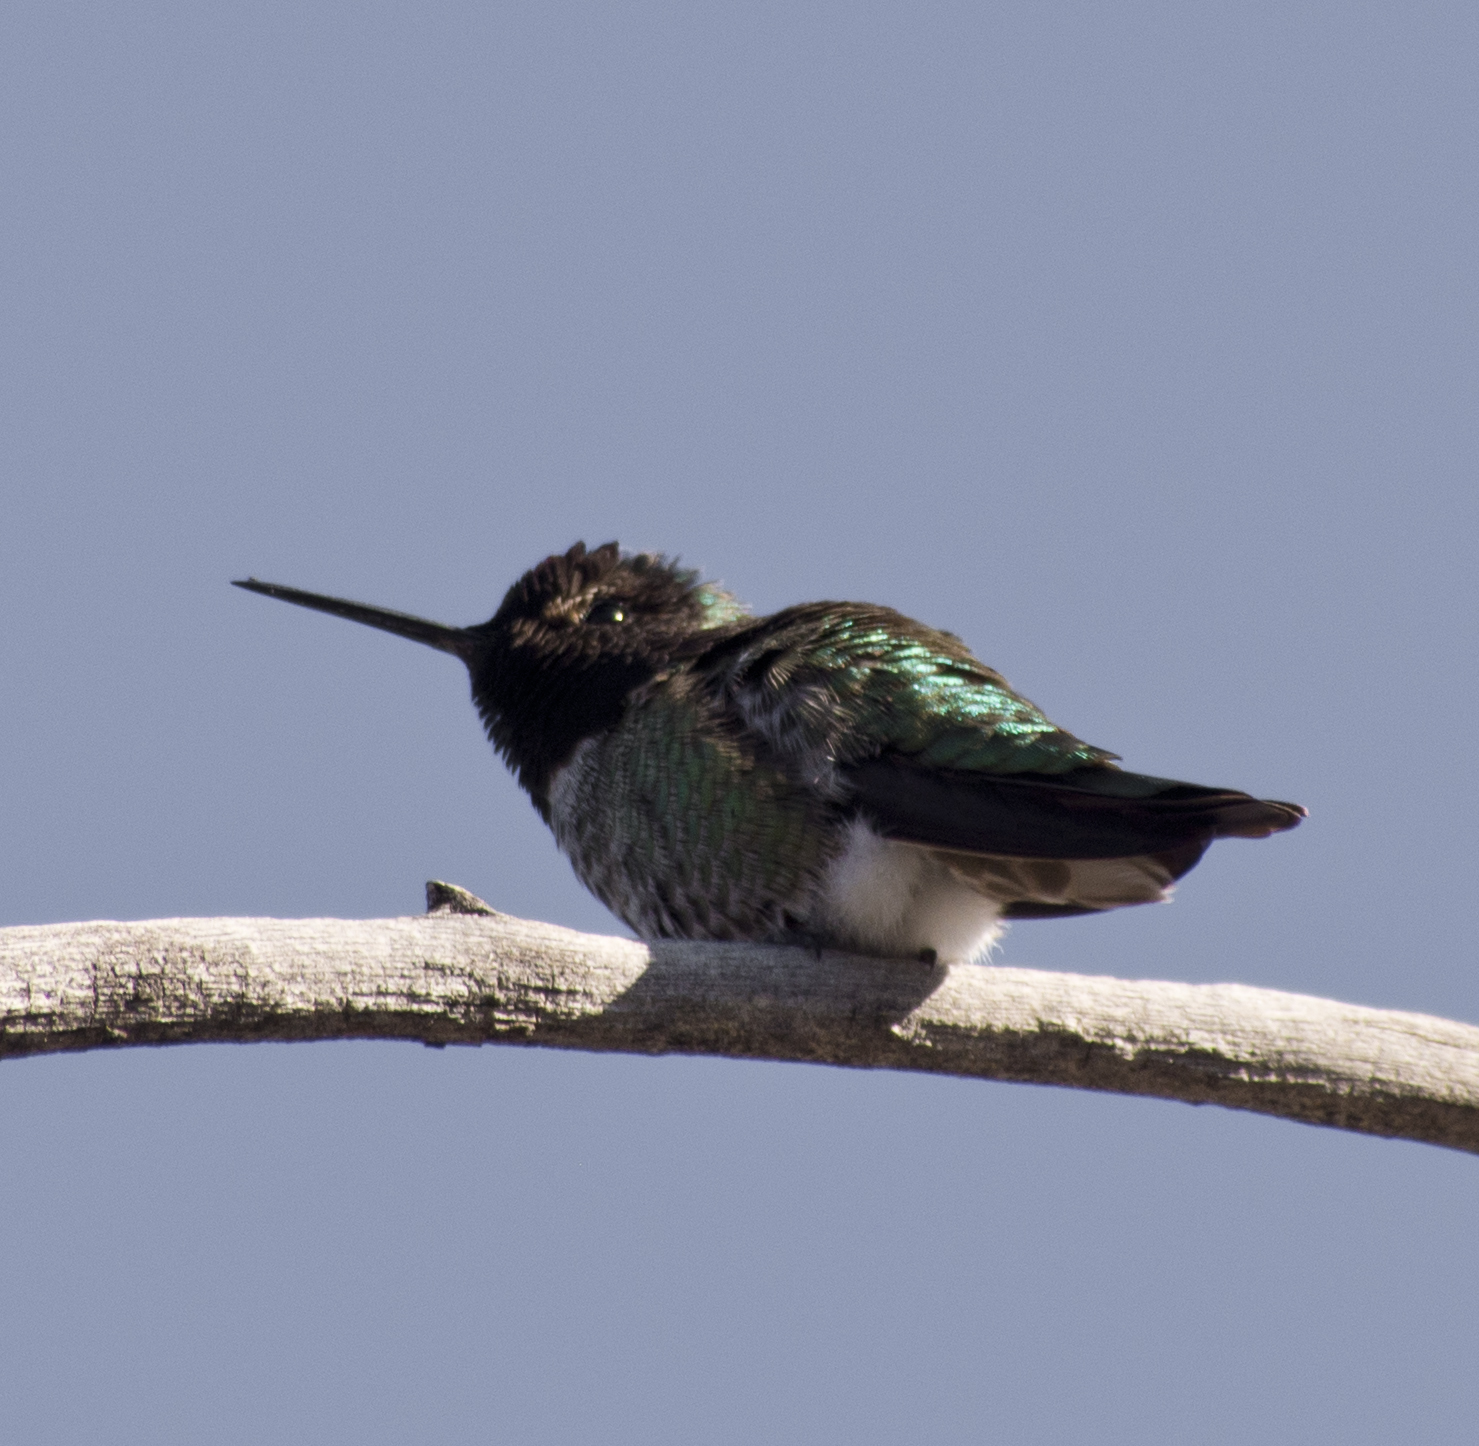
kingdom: Animalia
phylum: Chordata
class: Aves
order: Apodiformes
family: Trochilidae
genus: Calypte
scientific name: Calypte anna
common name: Anna's hummingbird
